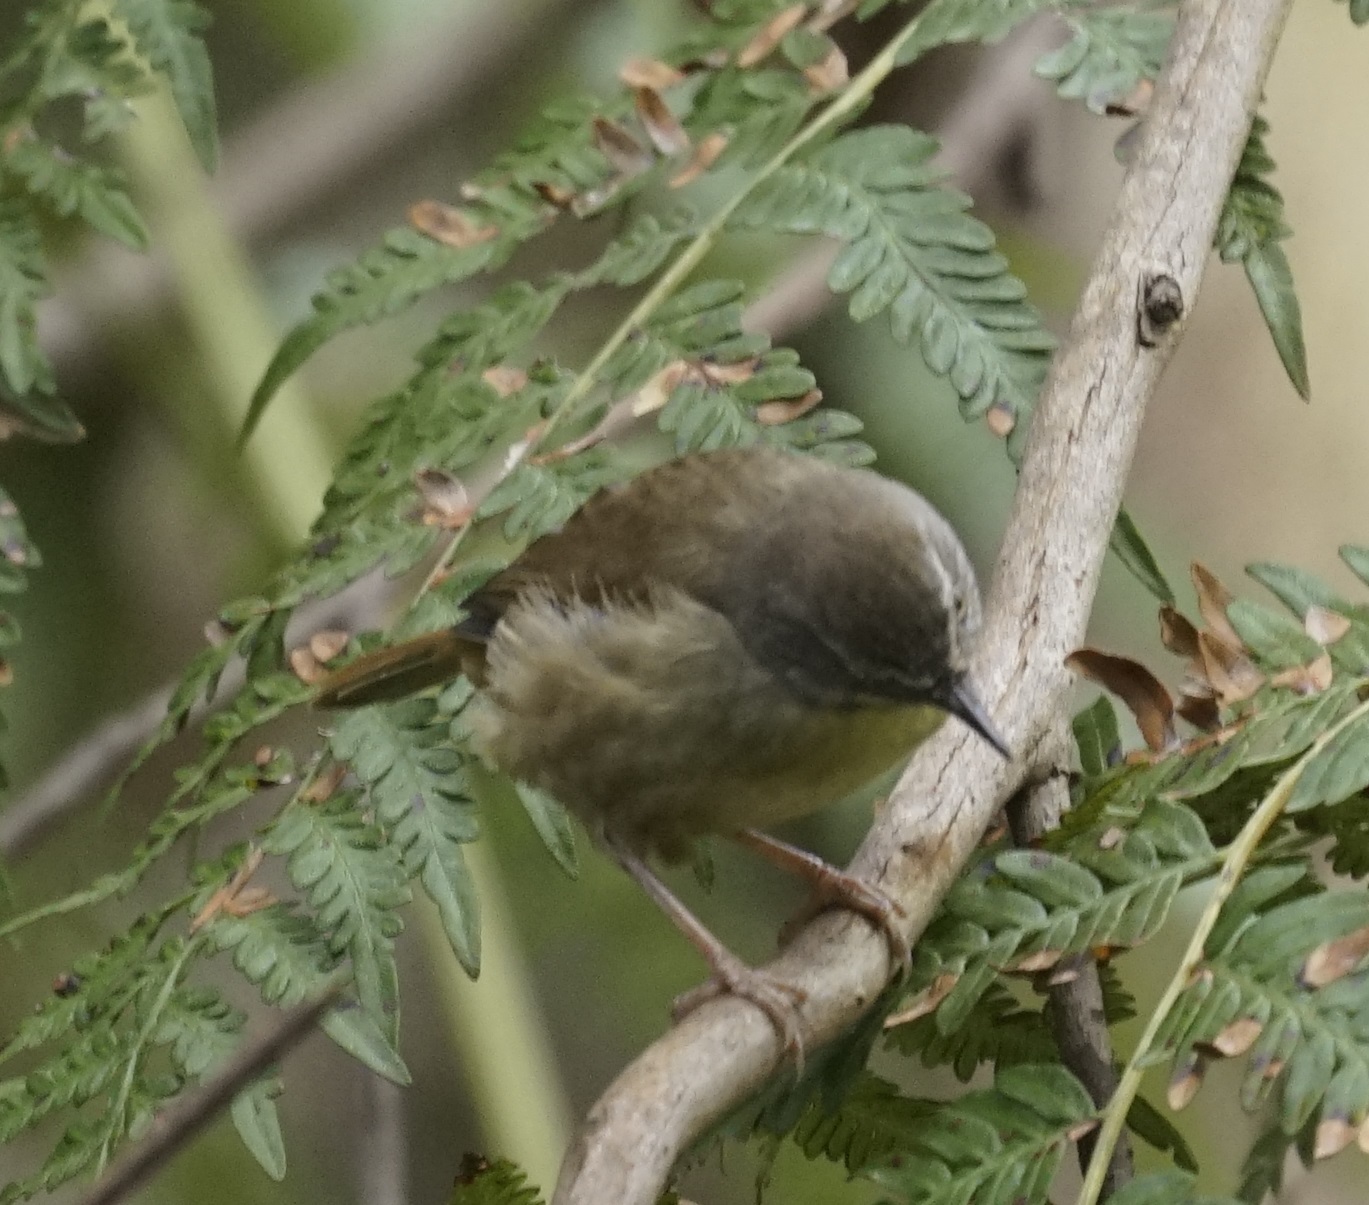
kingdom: Animalia
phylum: Chordata
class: Aves
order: Passeriformes
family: Acanthizidae
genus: Sericornis
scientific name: Sericornis frontalis
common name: White-browed scrubwren
